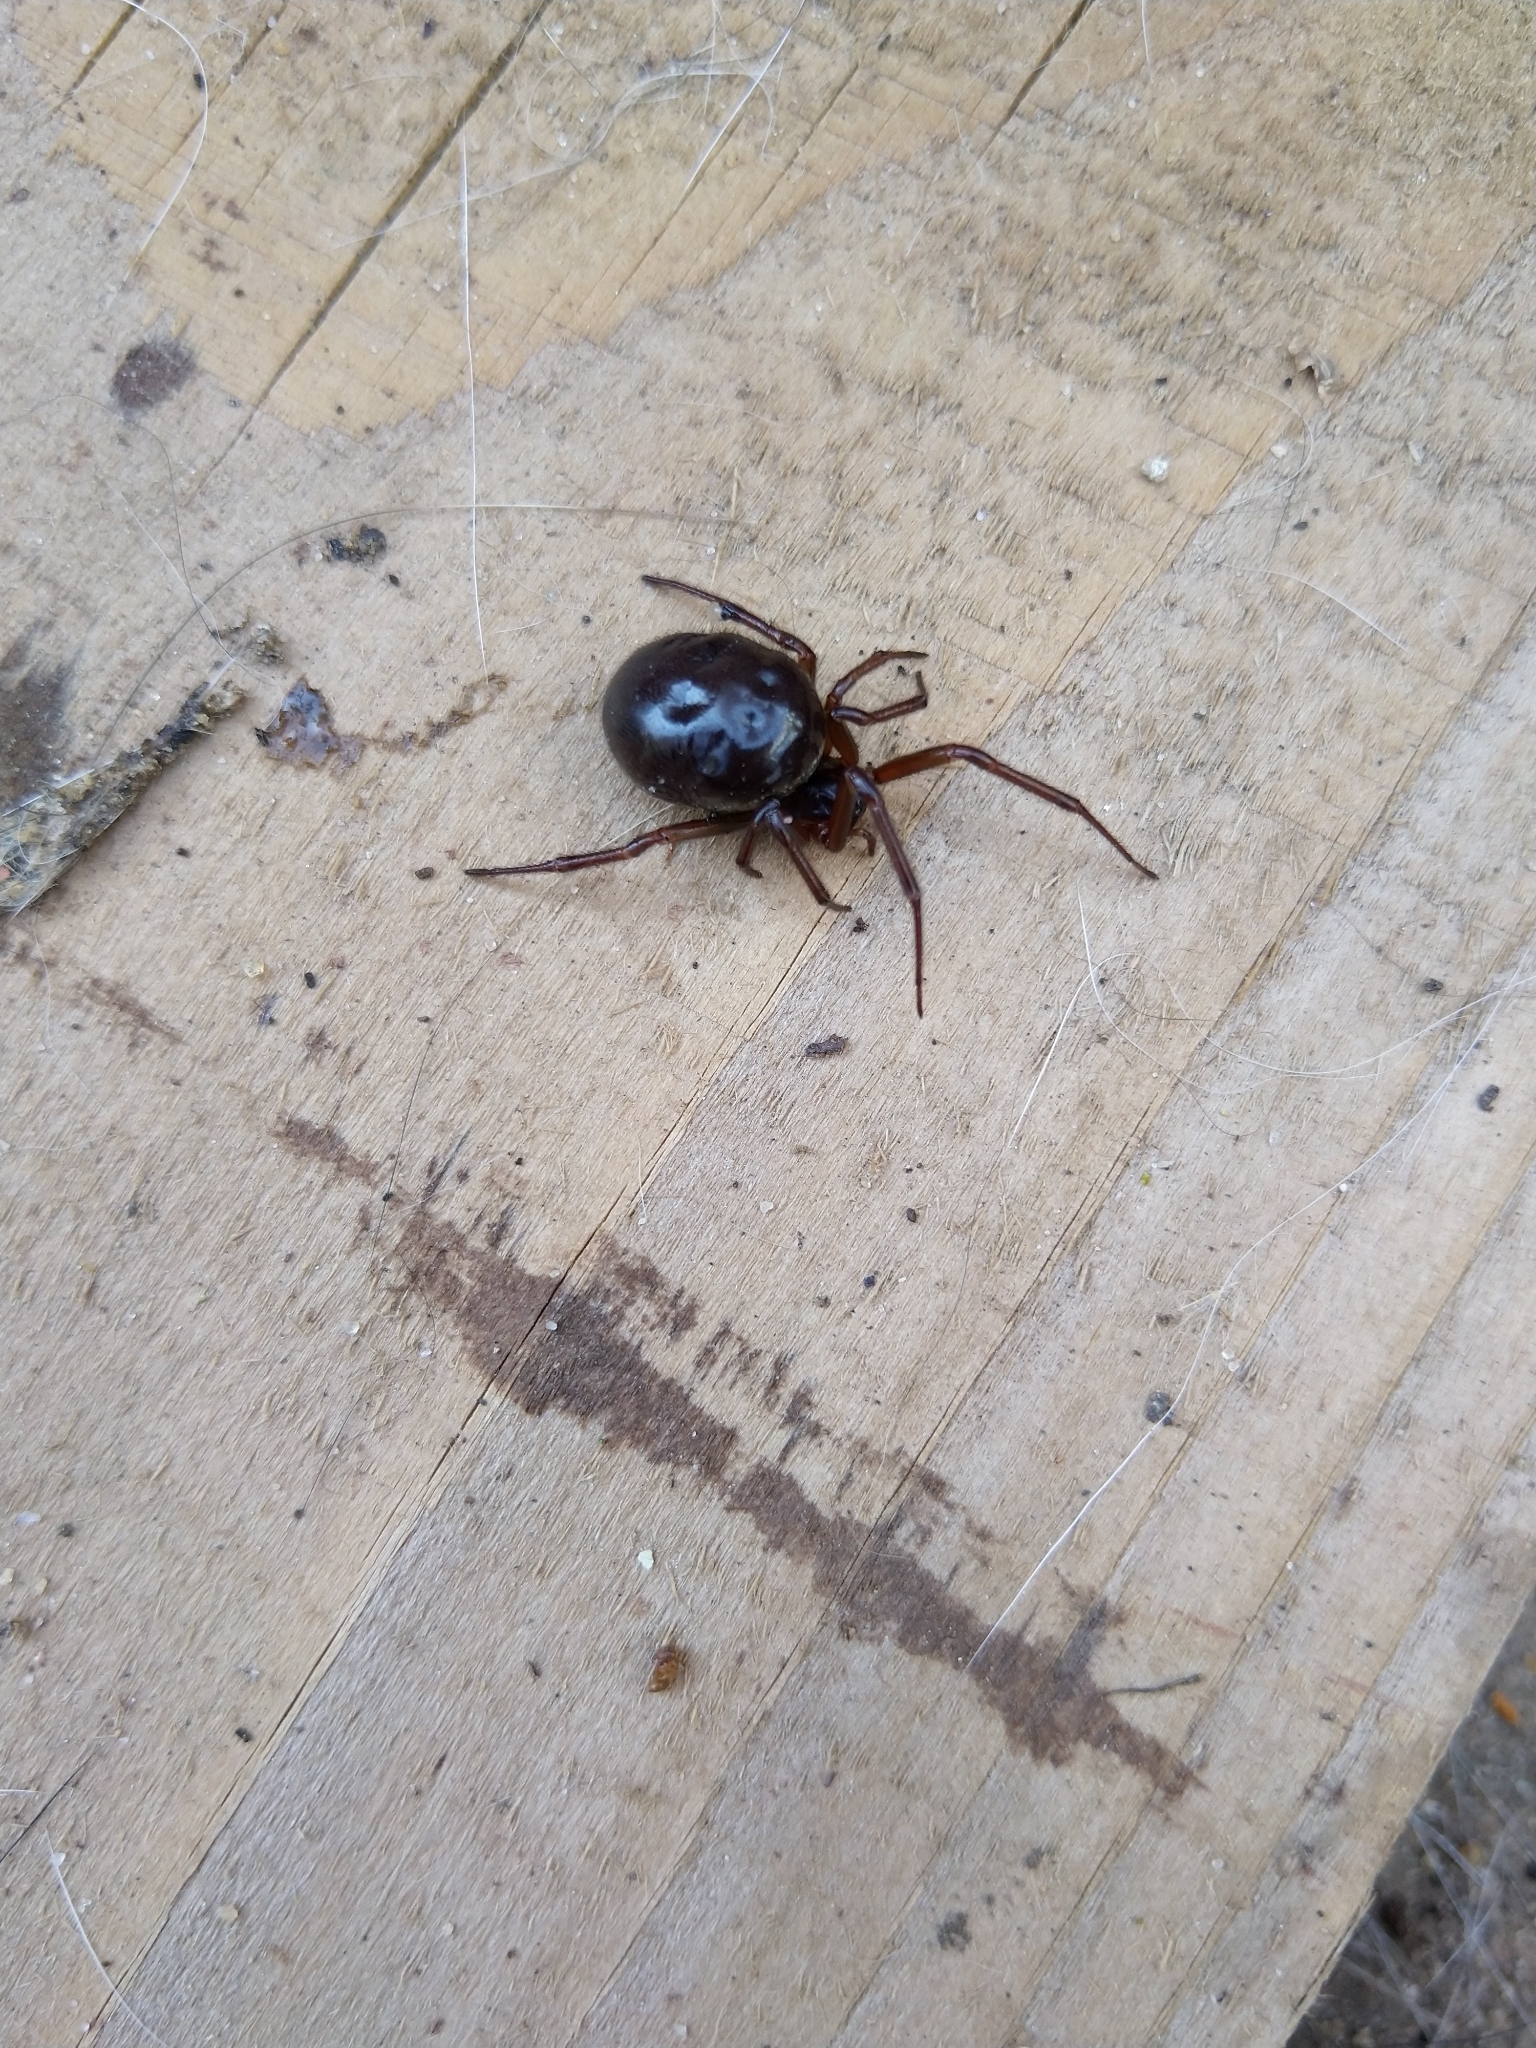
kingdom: Animalia
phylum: Arthropoda
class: Arachnida
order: Araneae
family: Theridiidae
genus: Steatoda
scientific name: Steatoda nobilis
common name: Cobweb weaver
